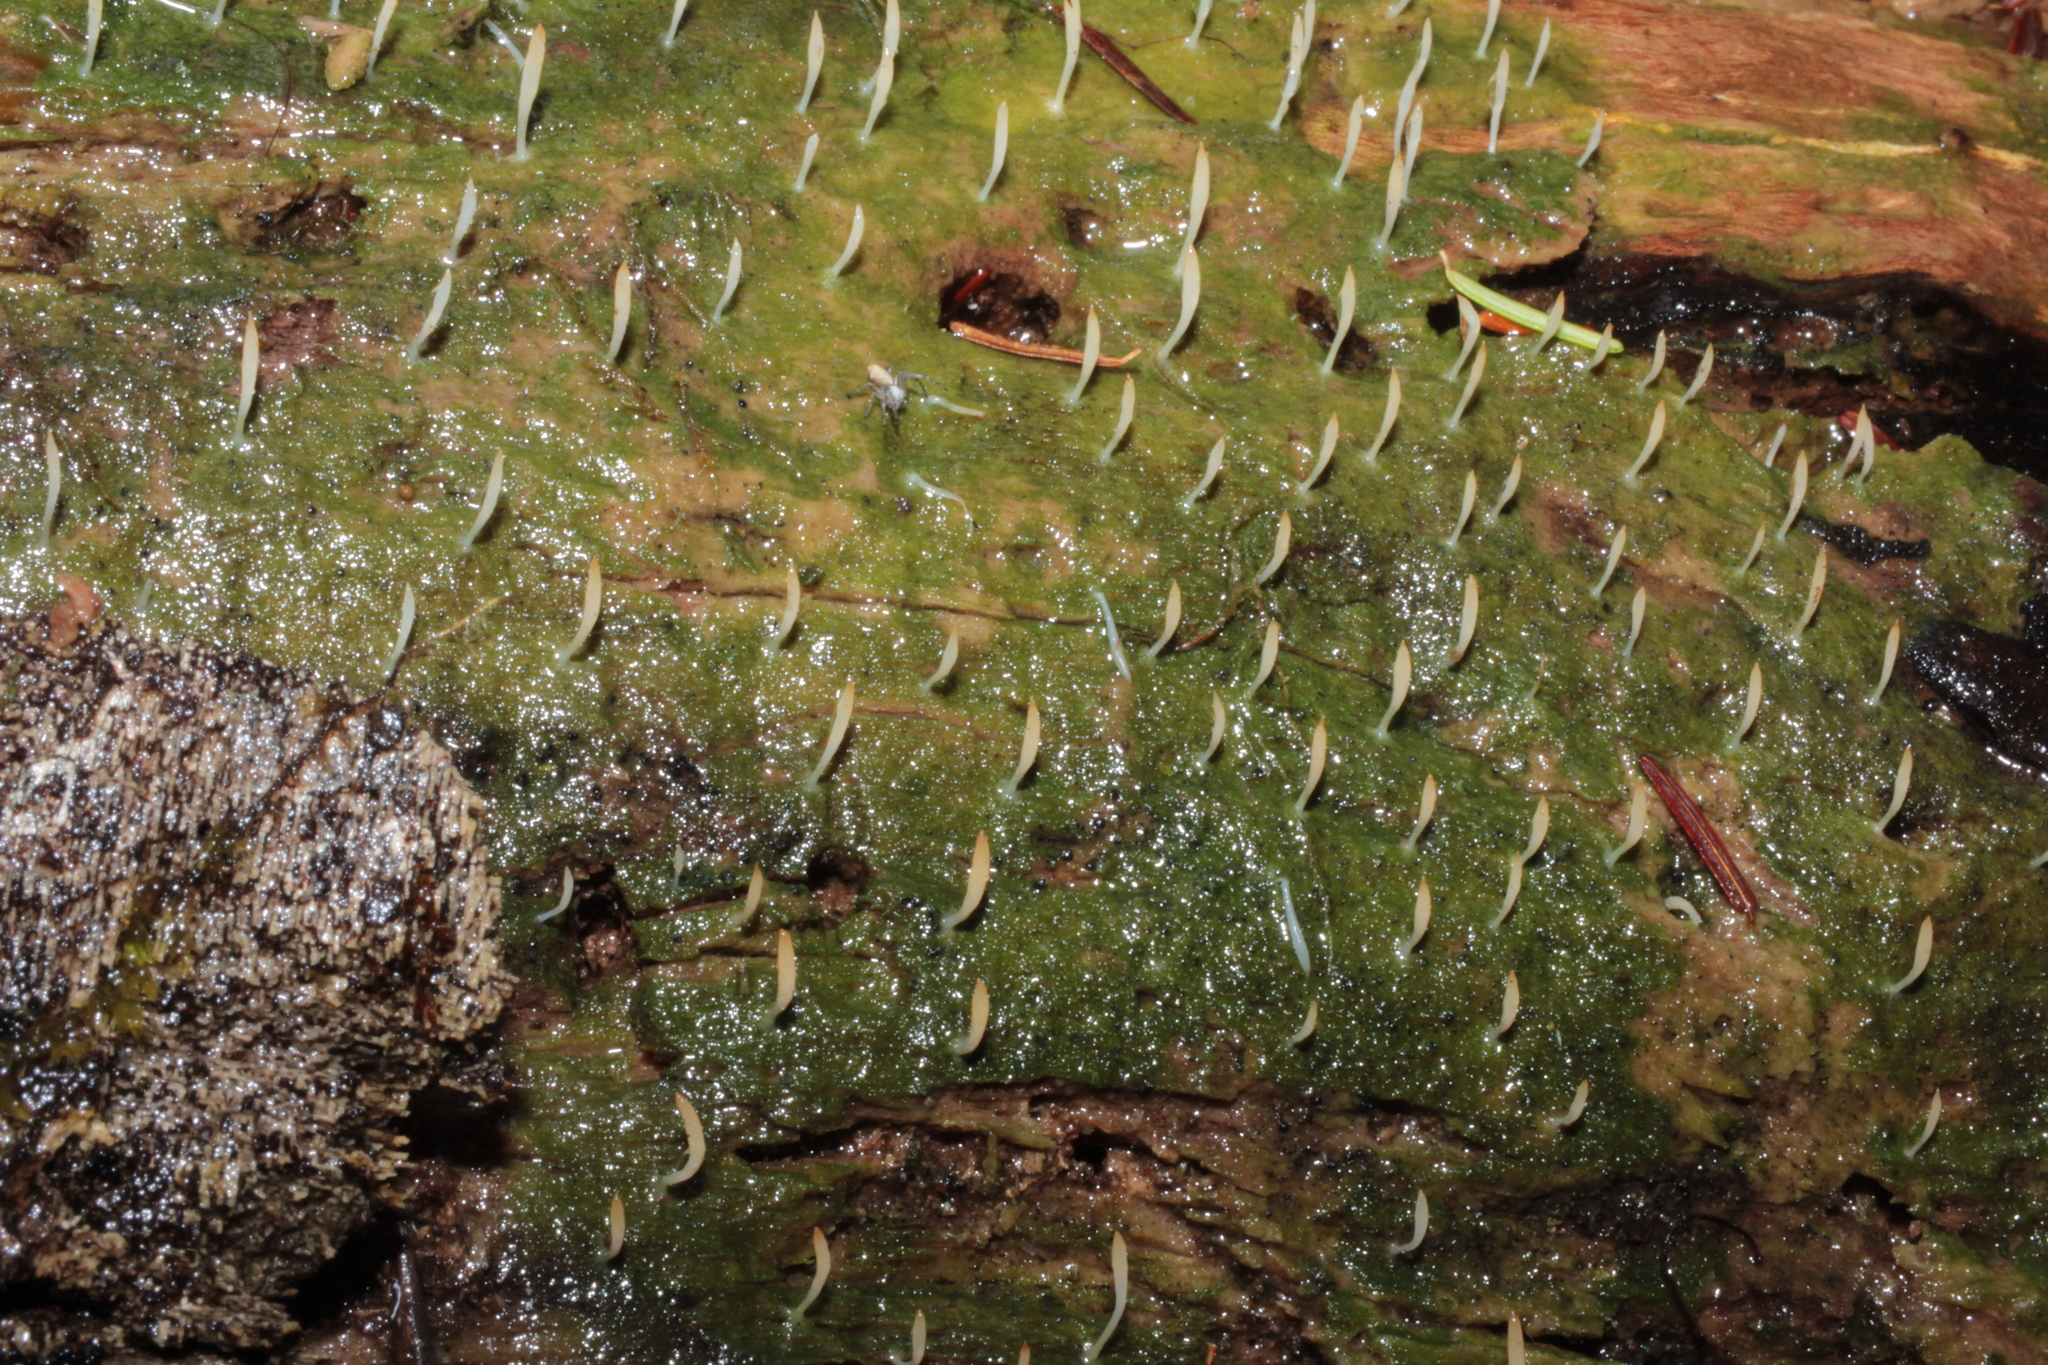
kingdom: Fungi
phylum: Basidiomycota
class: Agaricomycetes
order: Cantharellales
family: Hydnaceae
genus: Multiclavula
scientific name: Multiclavula mucida
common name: White green-algae coral
